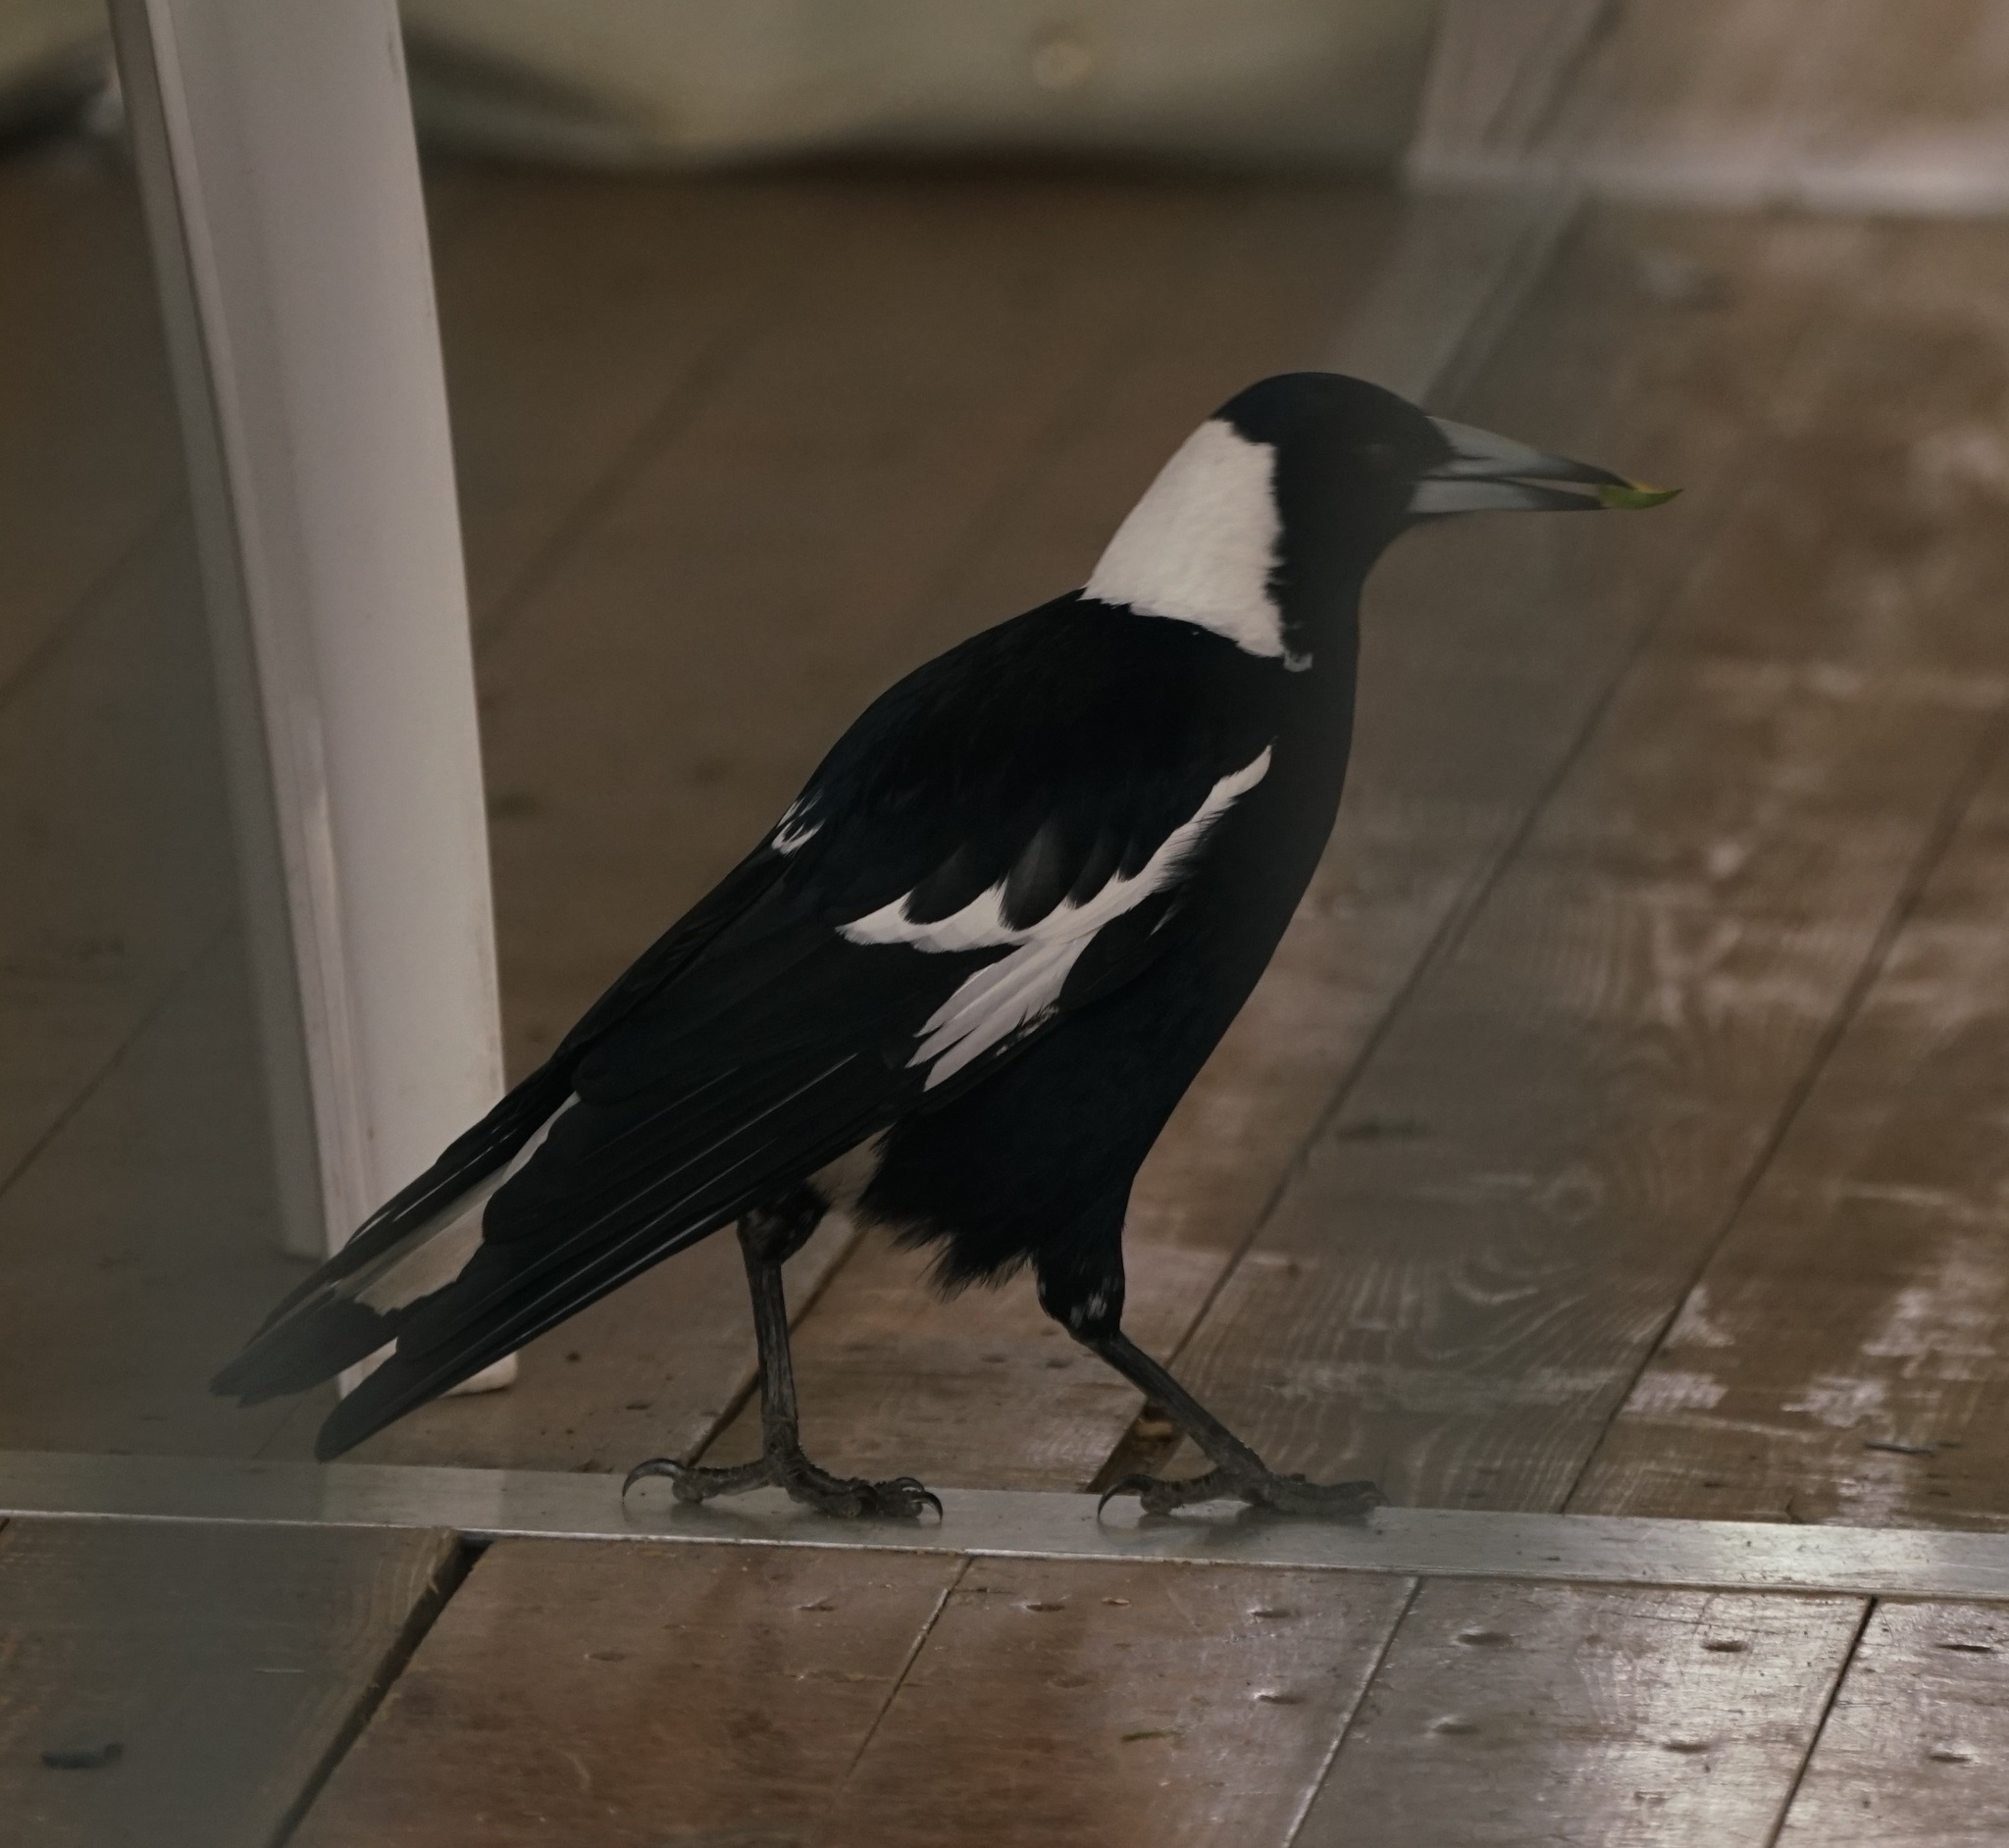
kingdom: Animalia
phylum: Chordata
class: Aves
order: Passeriformes
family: Cracticidae
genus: Gymnorhina
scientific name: Gymnorhina tibicen
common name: Australian magpie
